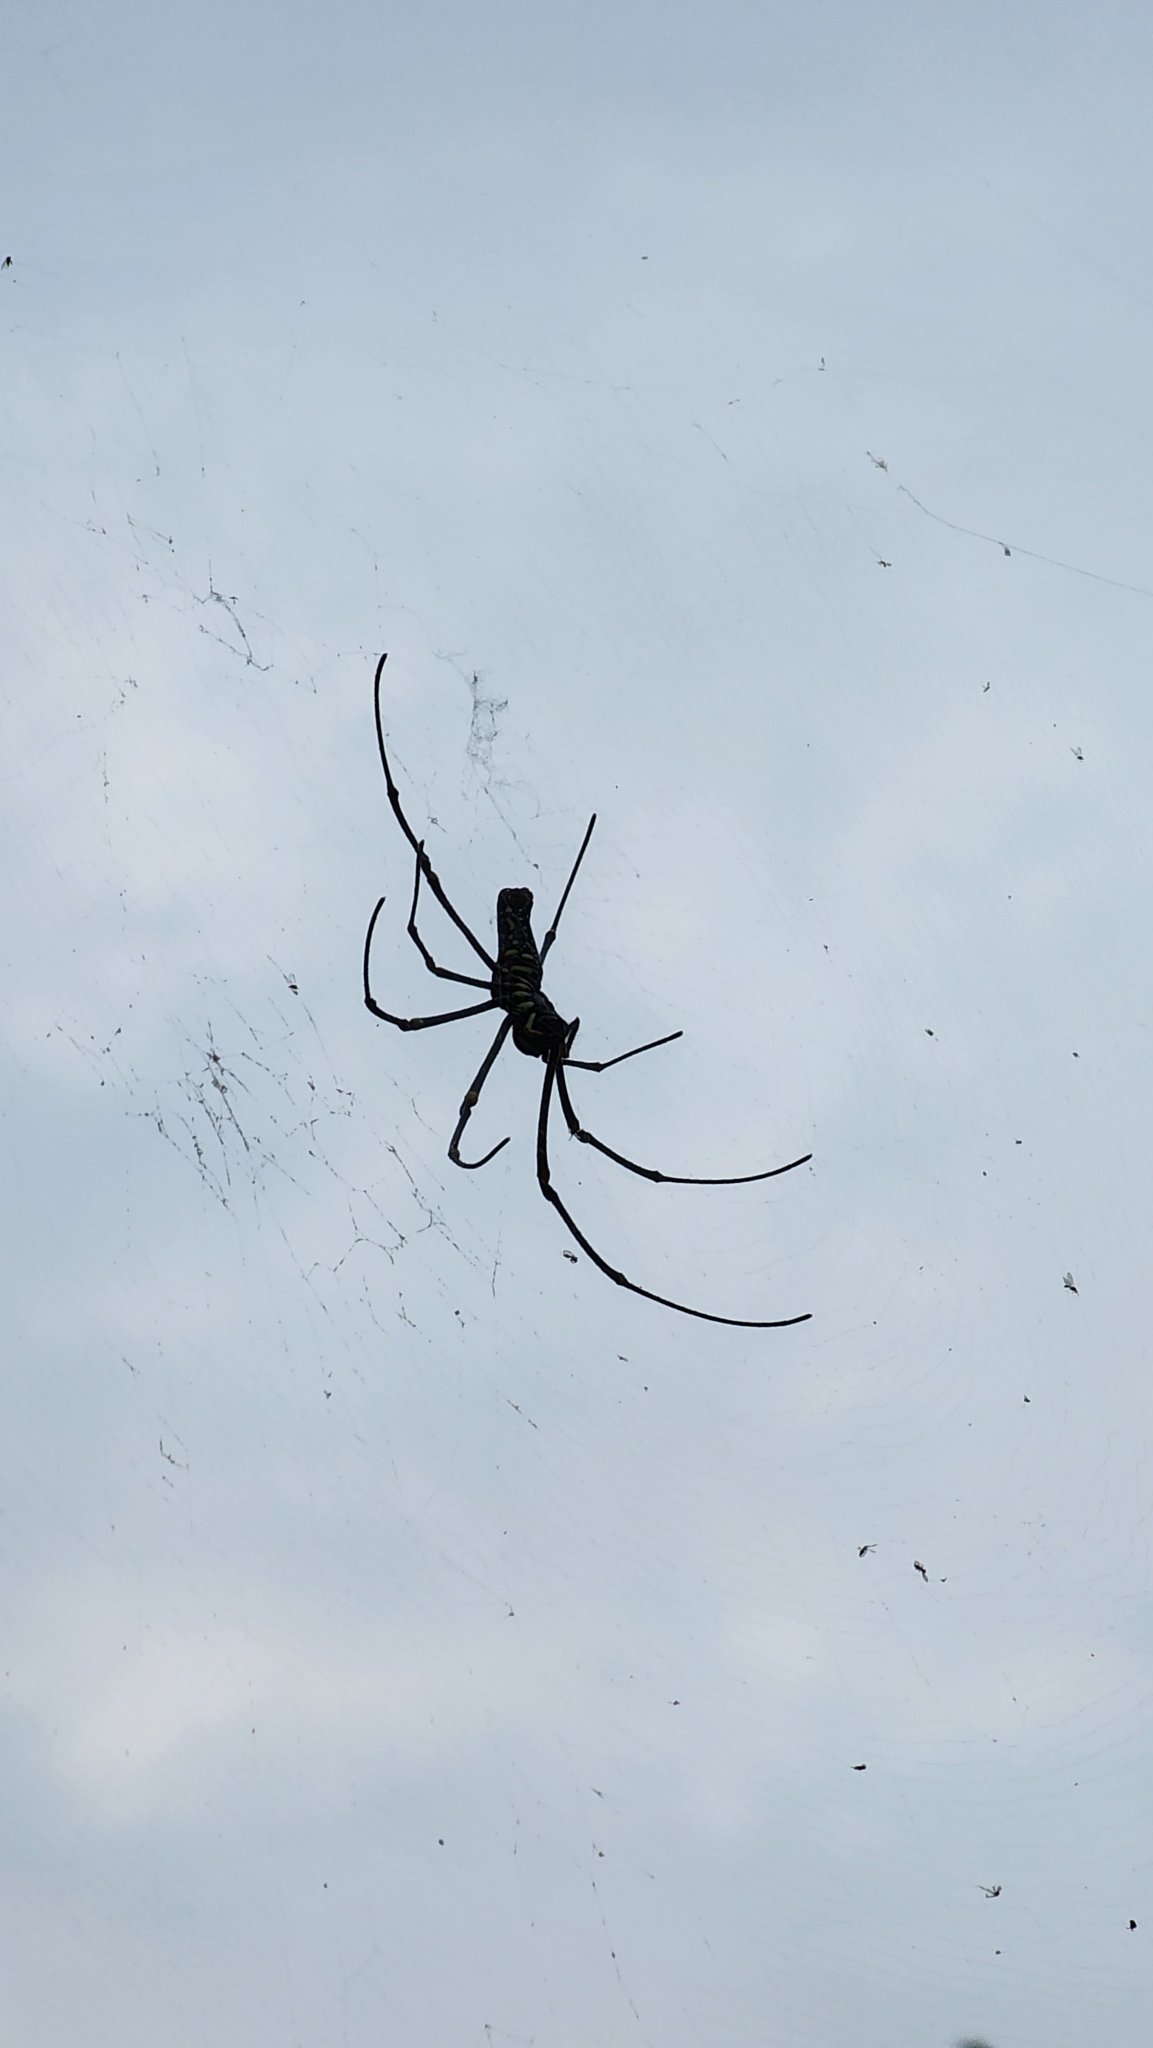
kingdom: Animalia
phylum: Arthropoda
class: Arachnida
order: Araneae
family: Araneidae
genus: Nephila
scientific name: Nephila pilipes
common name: Giant golden orb weaver
